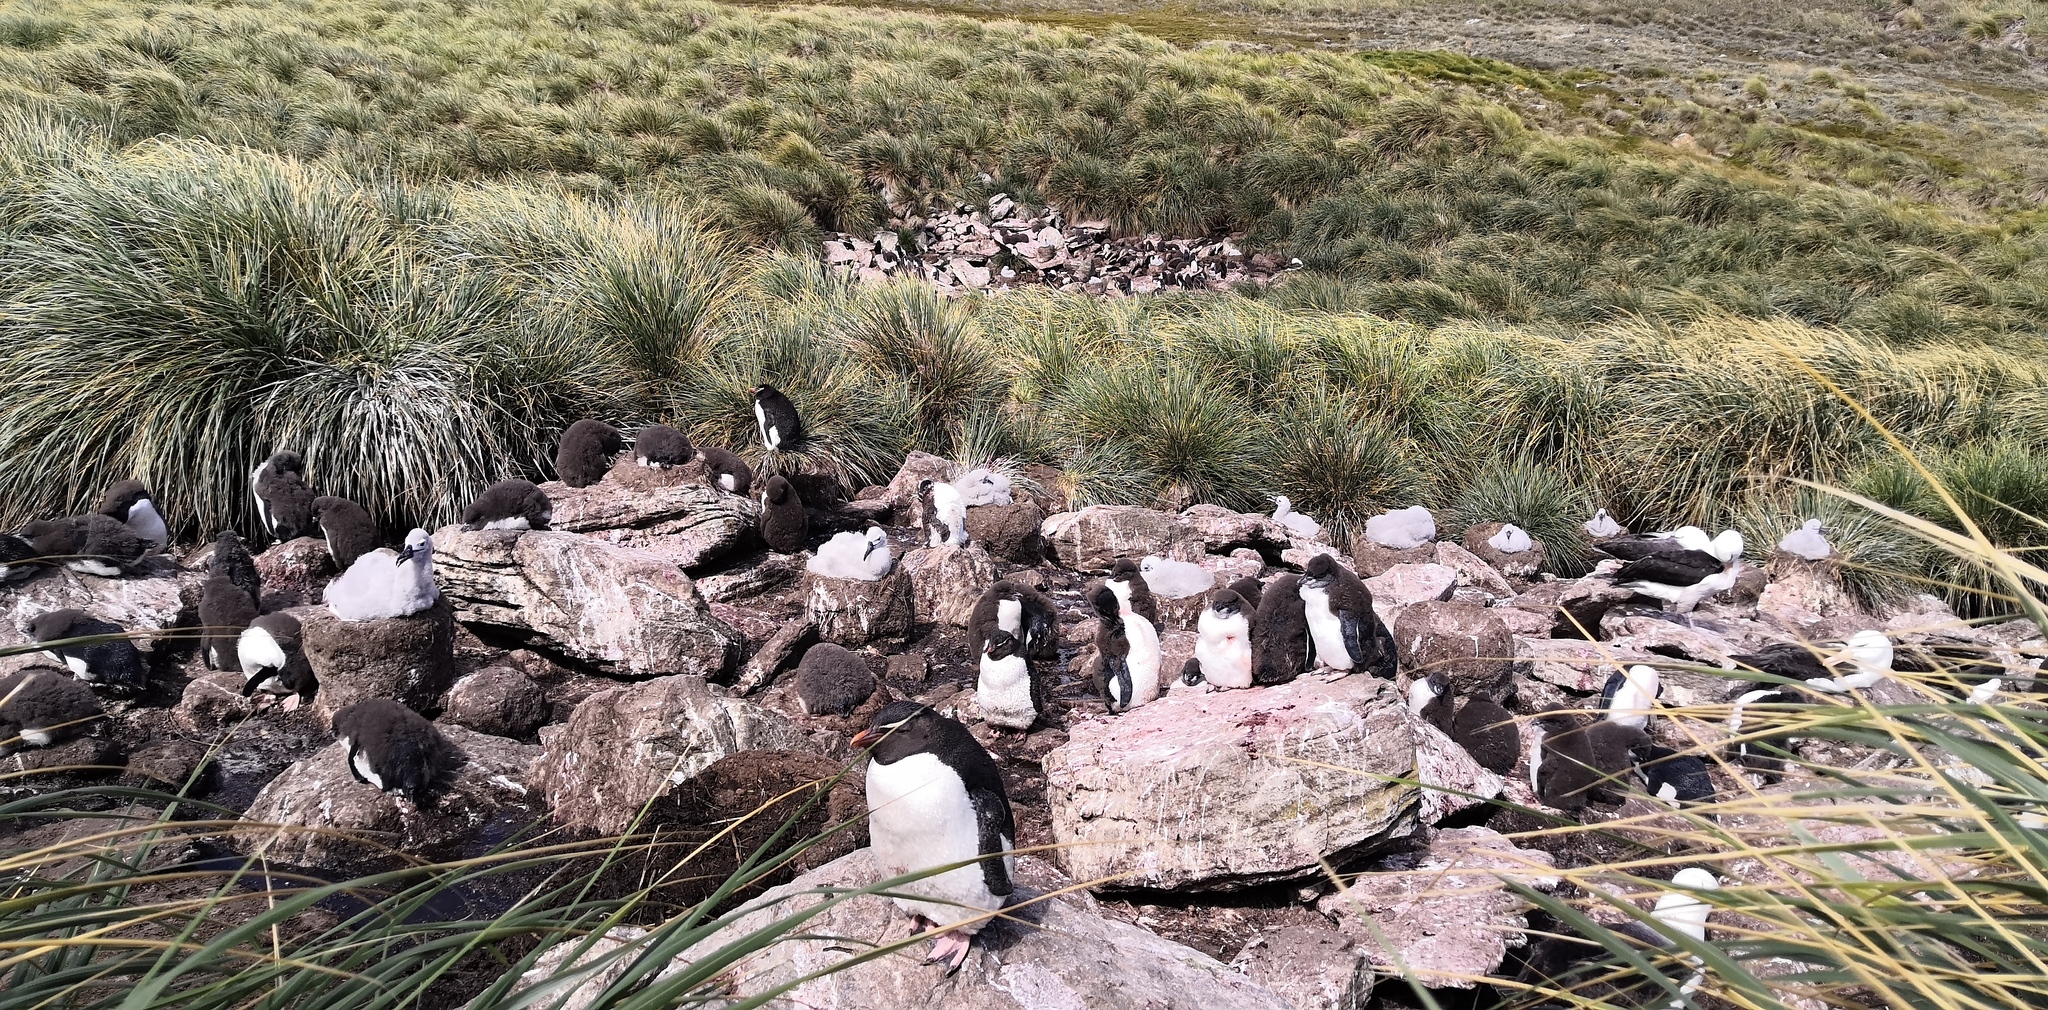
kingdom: Animalia
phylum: Chordata
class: Aves
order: Sphenisciformes
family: Spheniscidae
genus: Eudyptes
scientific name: Eudyptes chrysocome
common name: Southern rockhopper penguin
